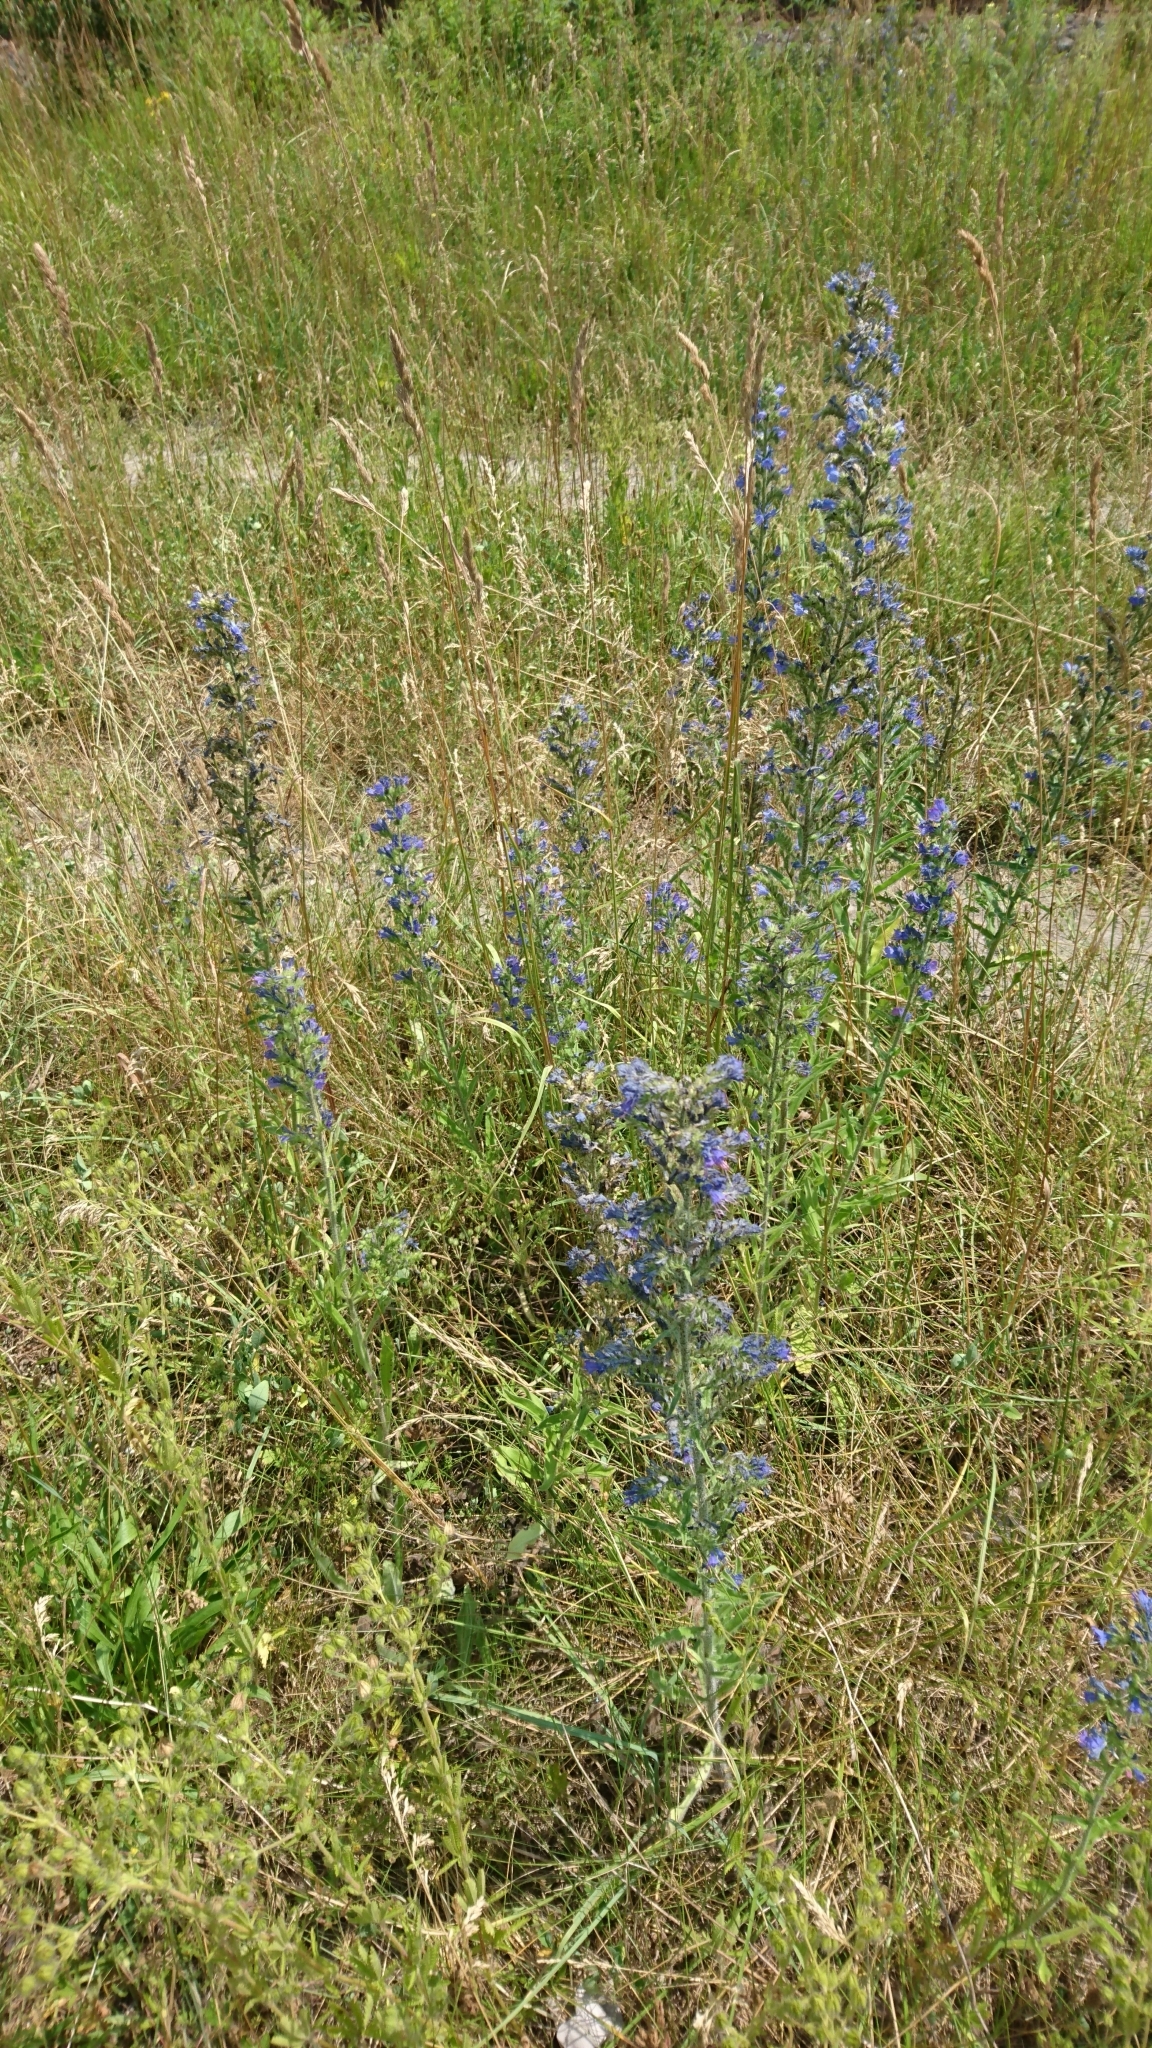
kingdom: Plantae
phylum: Tracheophyta
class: Magnoliopsida
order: Boraginales
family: Boraginaceae
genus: Echium
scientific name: Echium vulgare
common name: Common viper's bugloss
